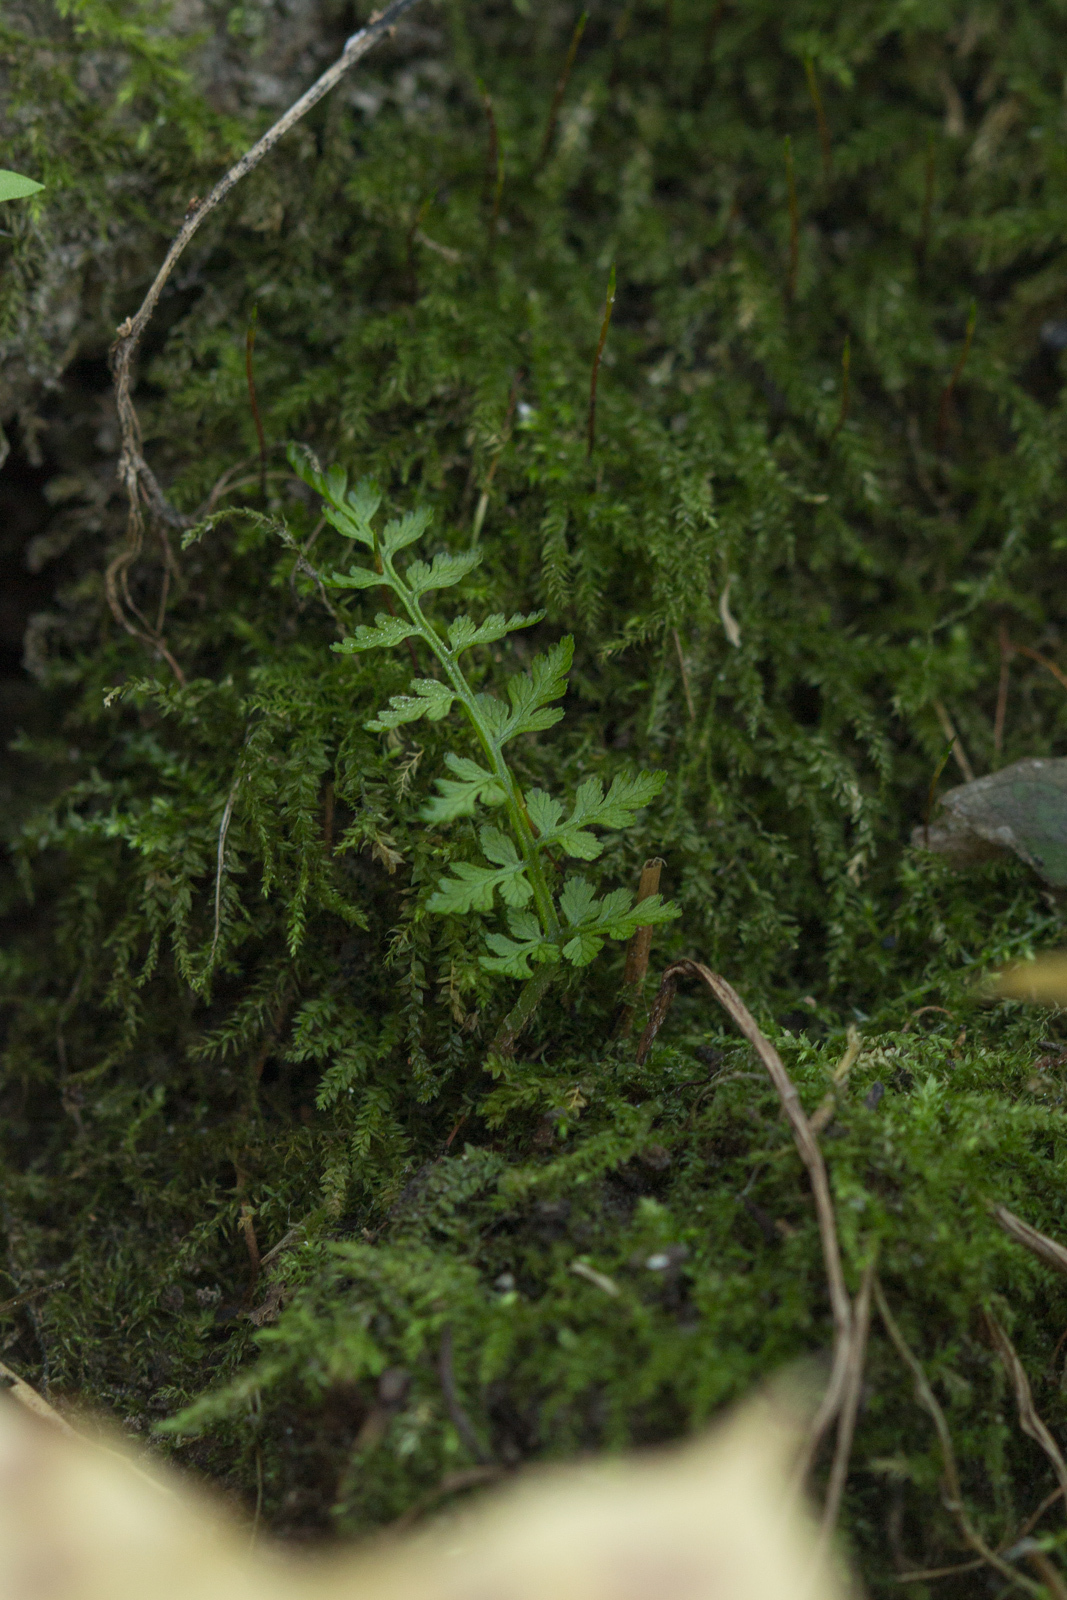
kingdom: Plantae
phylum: Tracheophyta
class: Polypodiopsida
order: Polypodiales
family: Cystopteridaceae
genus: Cystopteris
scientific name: Cystopteris fragilis
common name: Brittle bladder fern
